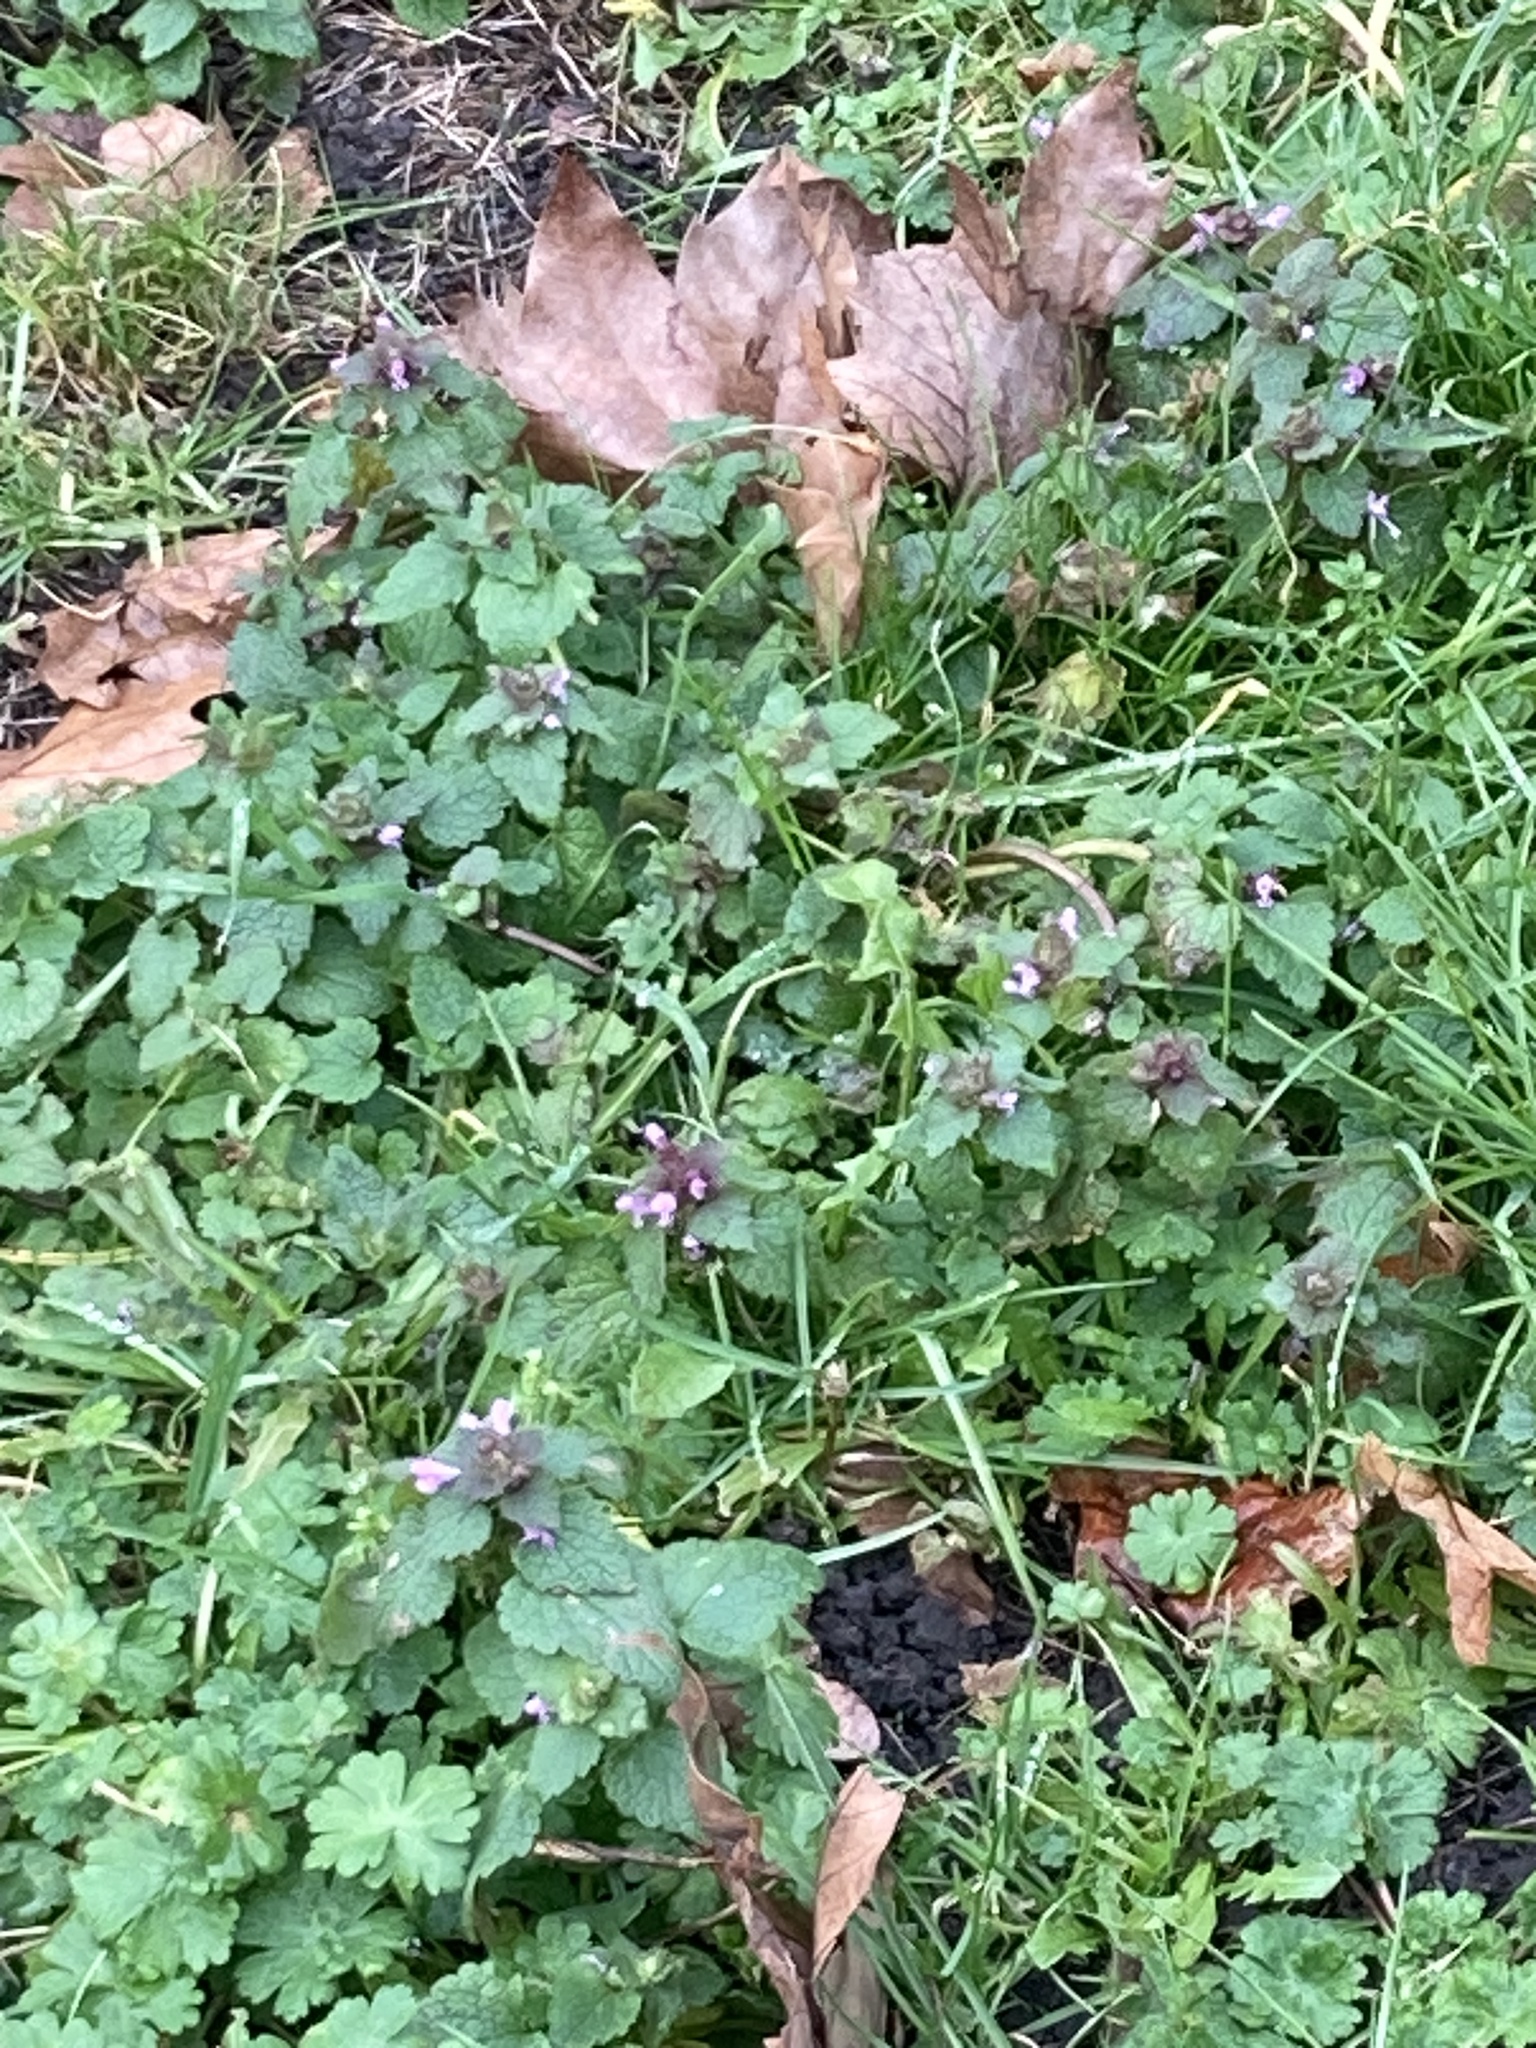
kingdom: Plantae
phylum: Tracheophyta
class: Magnoliopsida
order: Lamiales
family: Lamiaceae
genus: Lamium
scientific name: Lamium purpureum
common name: Red dead-nettle
